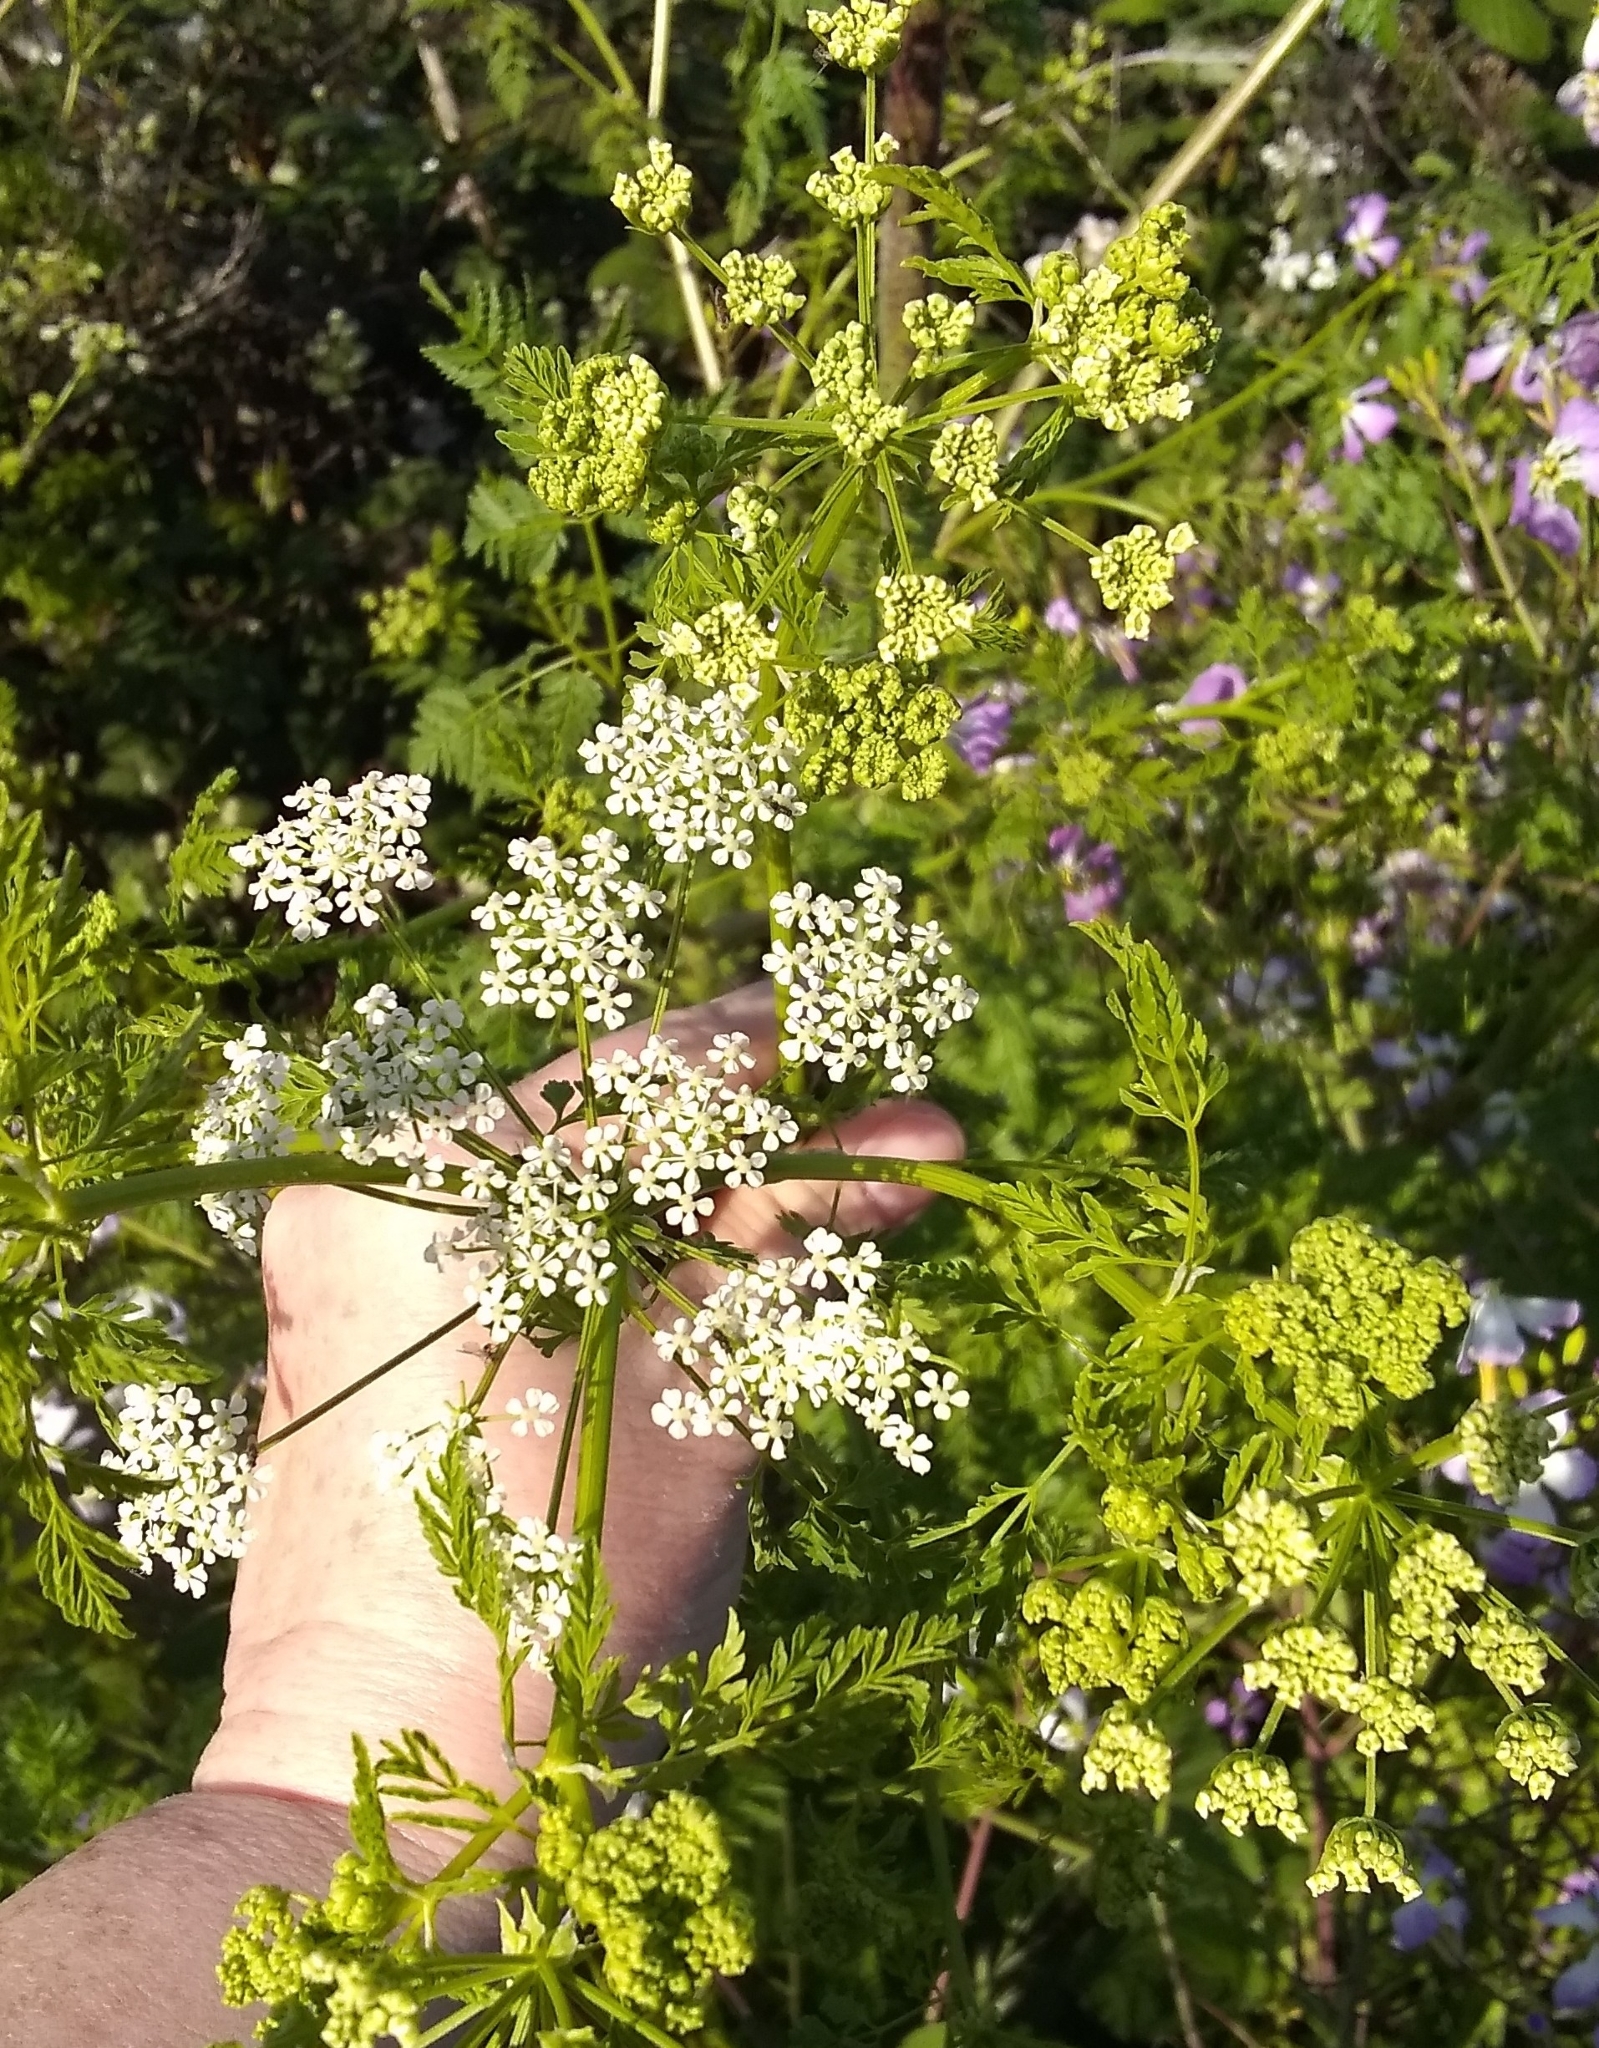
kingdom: Plantae
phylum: Tracheophyta
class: Magnoliopsida
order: Apiales
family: Apiaceae
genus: Conium
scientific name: Conium maculatum
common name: Hemlock
